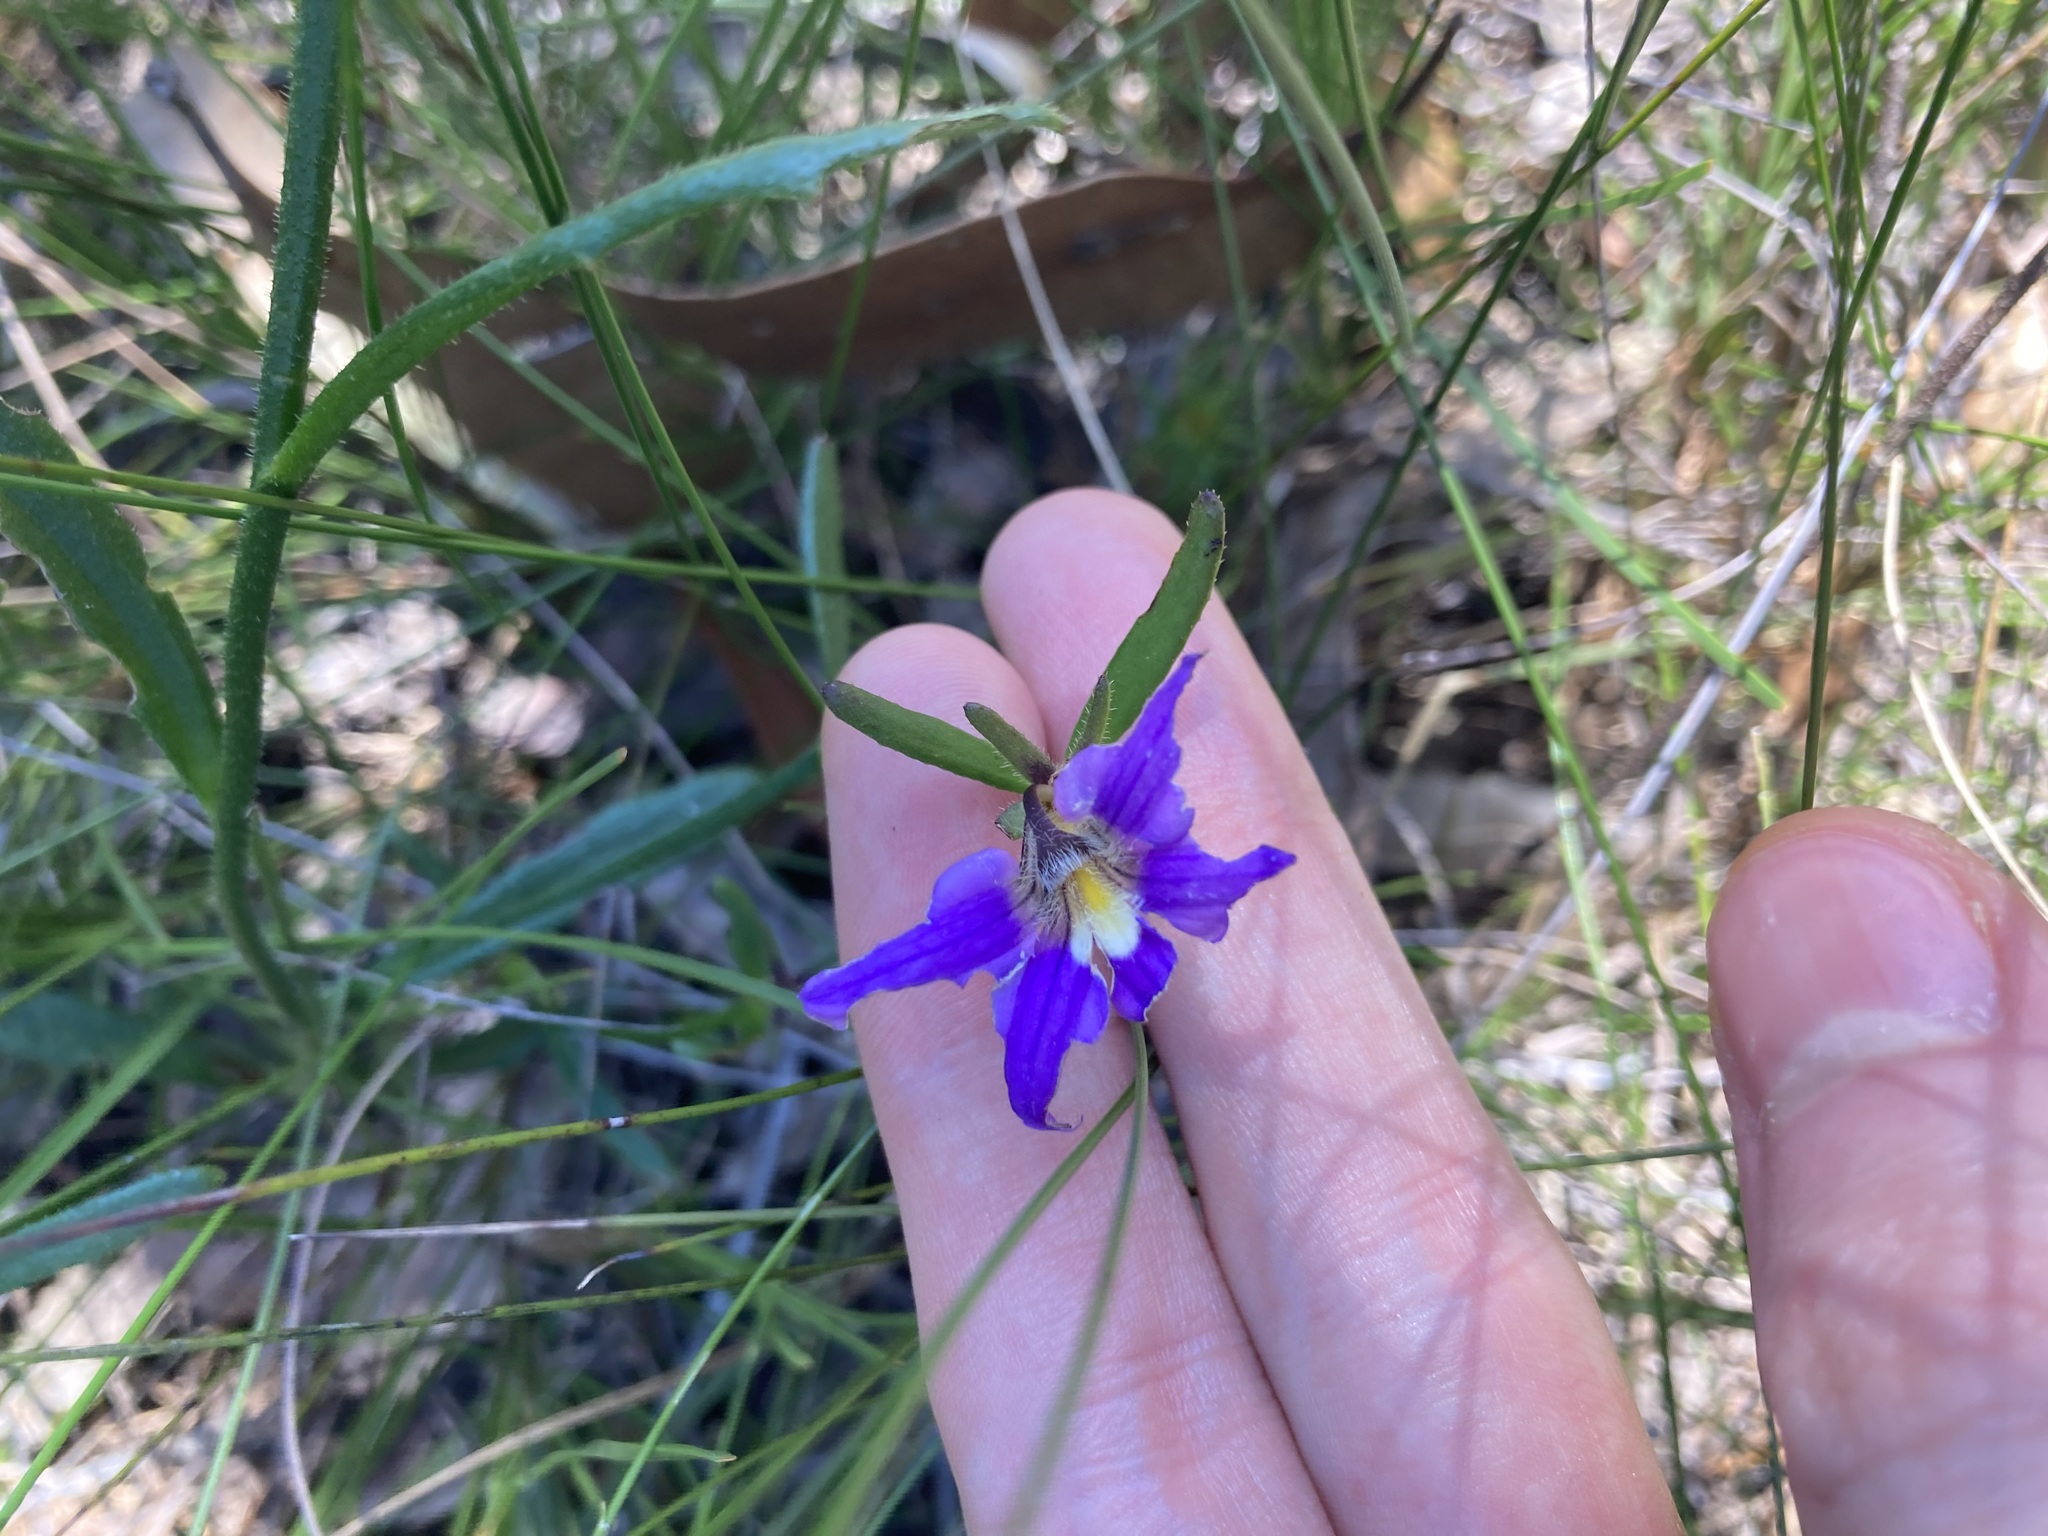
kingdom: Plantae
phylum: Tracheophyta
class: Magnoliopsida
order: Asterales
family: Goodeniaceae
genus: Scaevola
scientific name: Scaevola ramosissima
